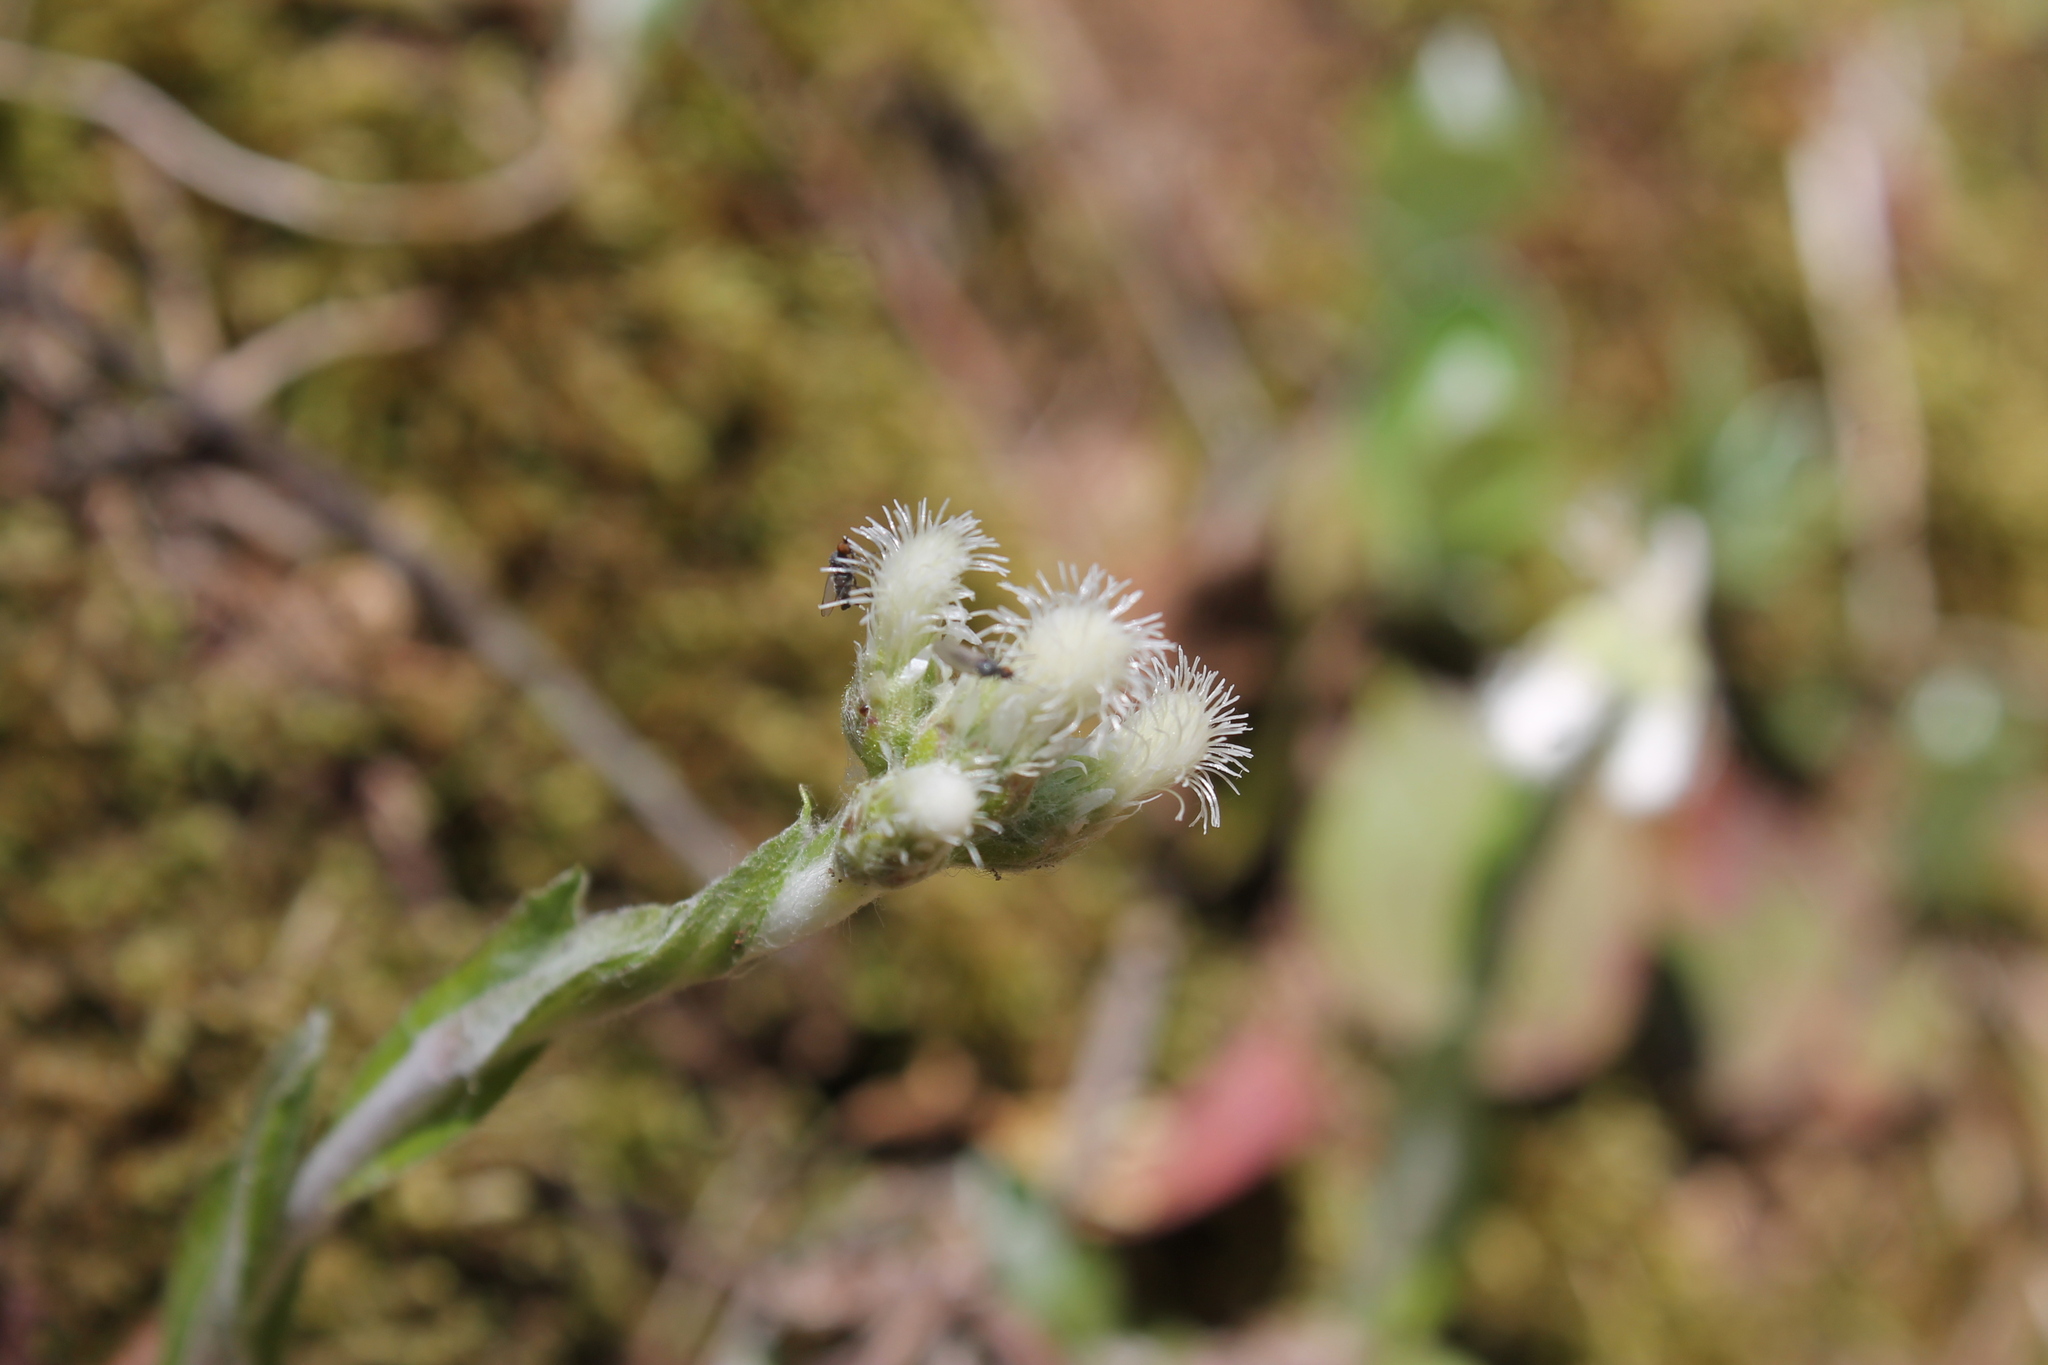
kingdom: Plantae
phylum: Tracheophyta
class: Magnoliopsida
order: Asterales
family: Asteraceae
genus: Antennaria
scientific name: Antennaria plantaginifolia
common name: Plantain-leaved pussytoes
